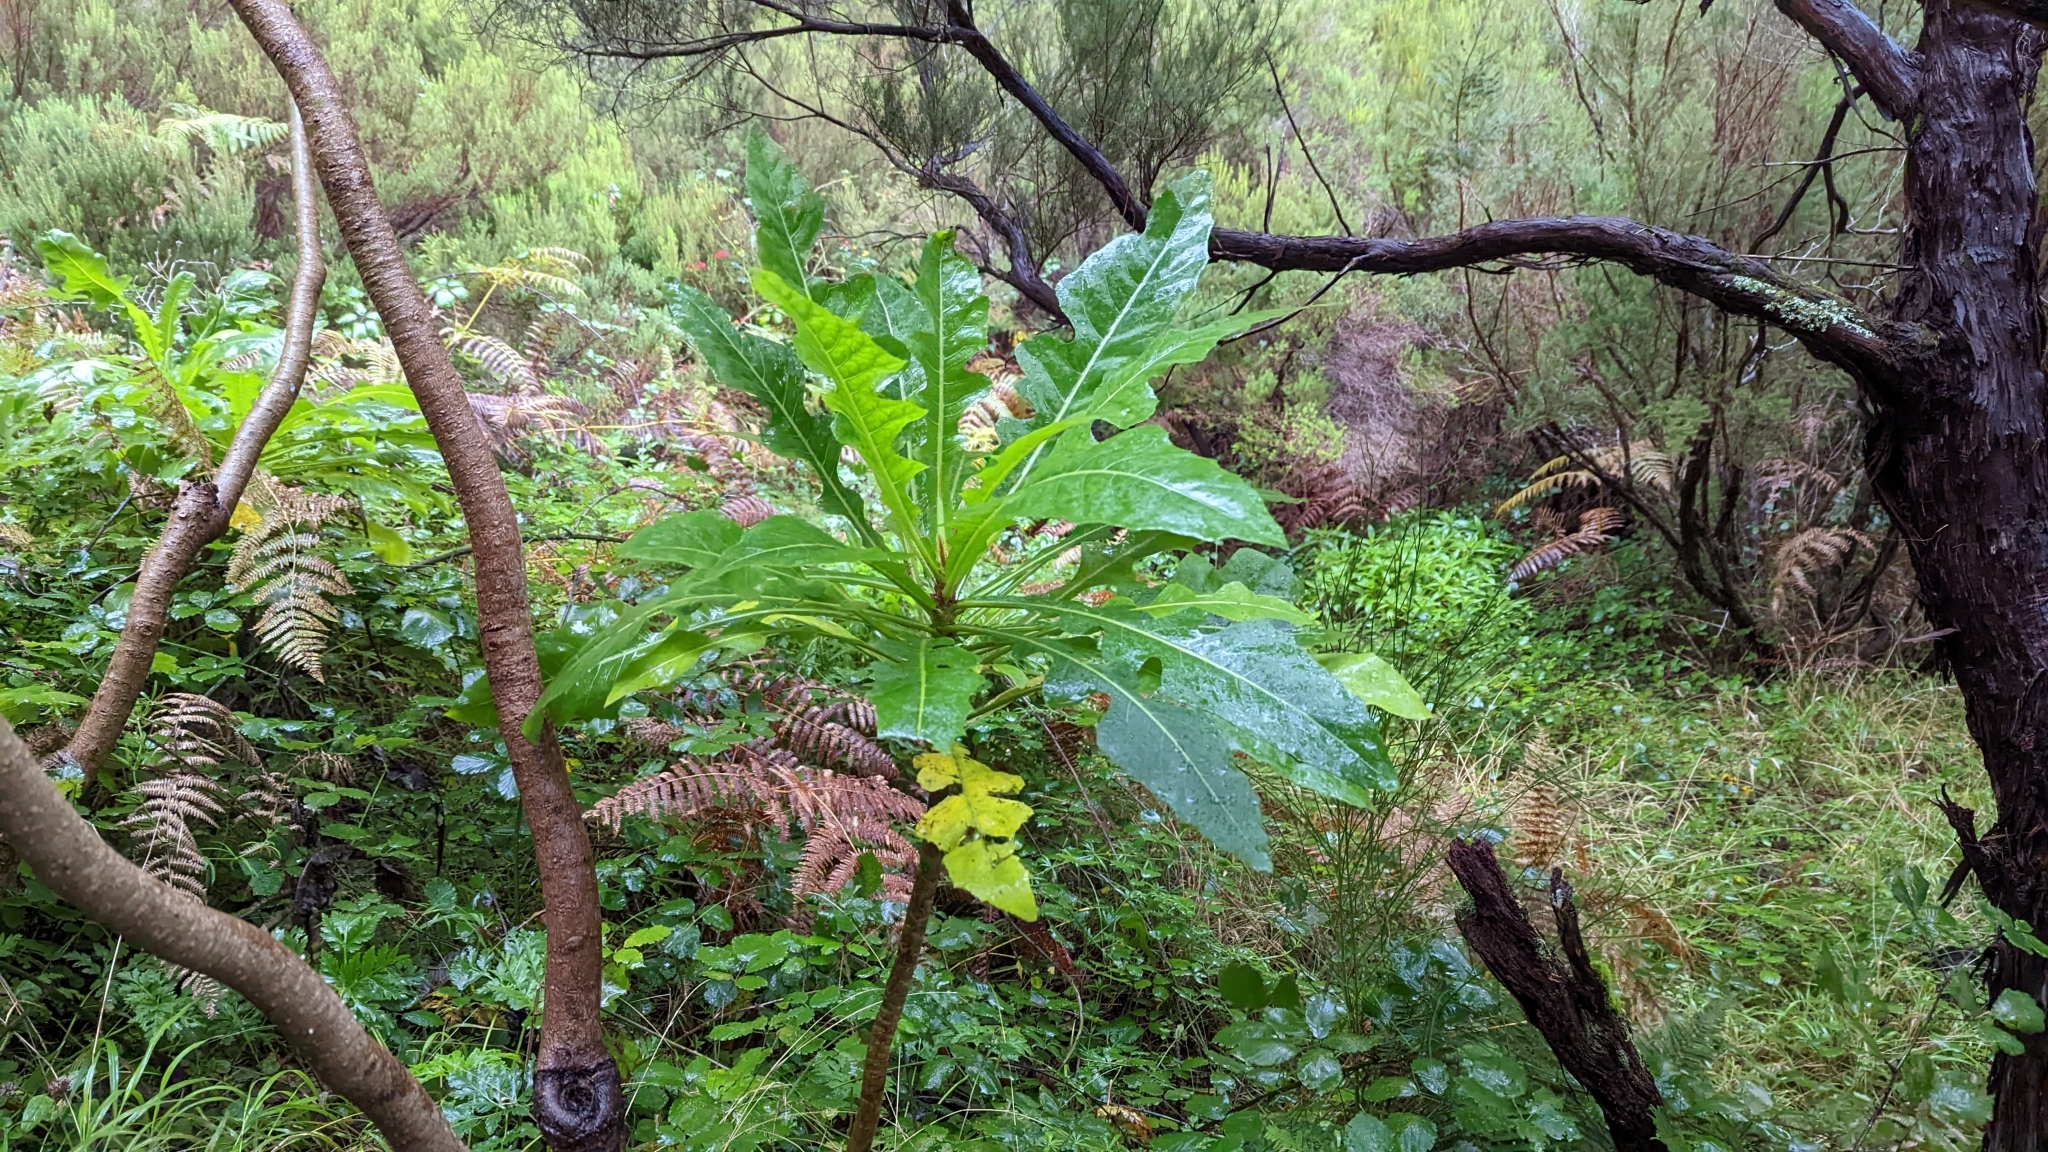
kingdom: Plantae
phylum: Tracheophyta
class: Magnoliopsida
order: Asterales
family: Asteraceae
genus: Sonchus
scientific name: Sonchus fruticosus
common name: Shrubby sow-thistle
